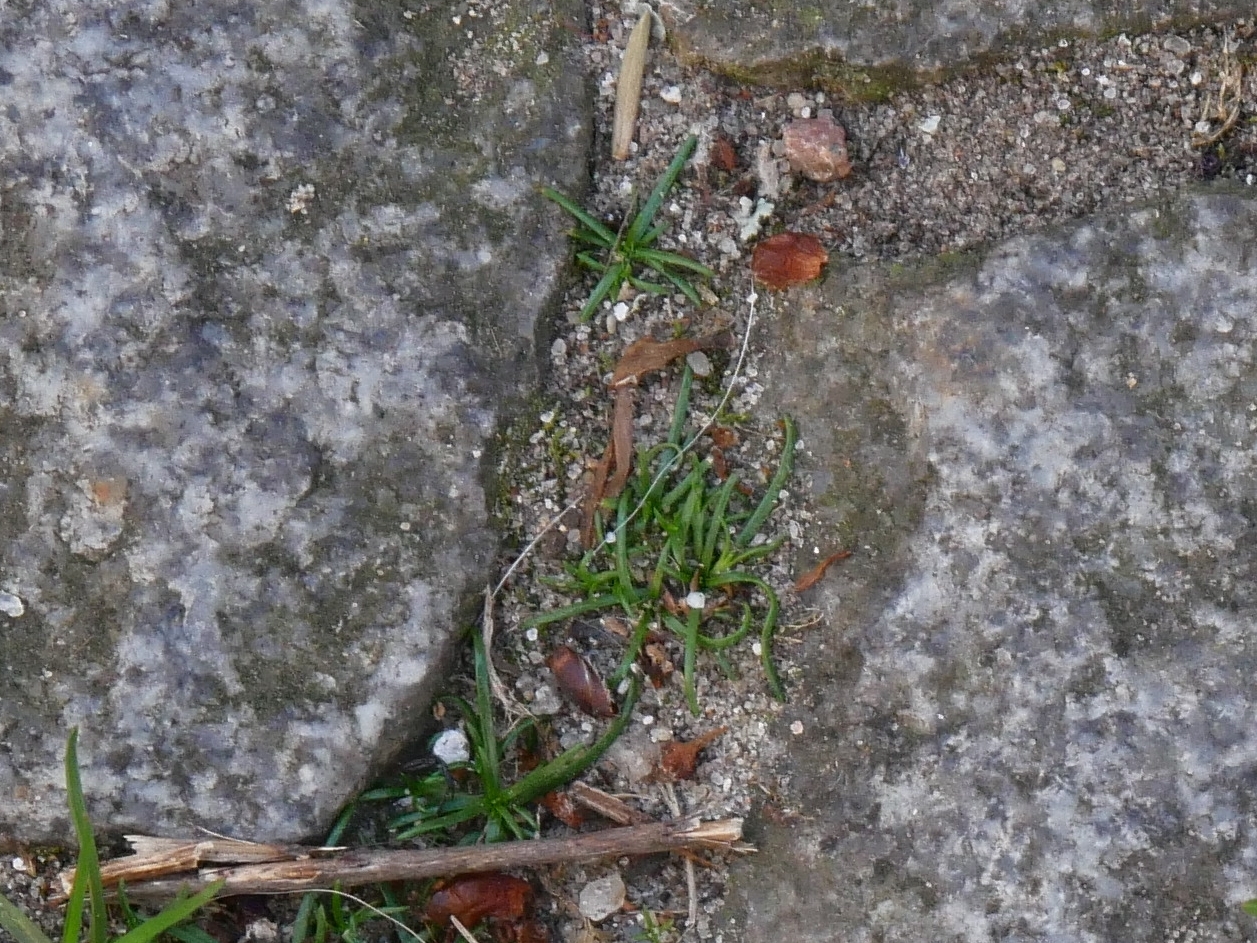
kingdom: Plantae
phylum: Tracheophyta
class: Magnoliopsida
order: Caryophyllales
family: Caryophyllaceae
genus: Sagina
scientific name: Sagina procumbens
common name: Procumbent pearlwort
